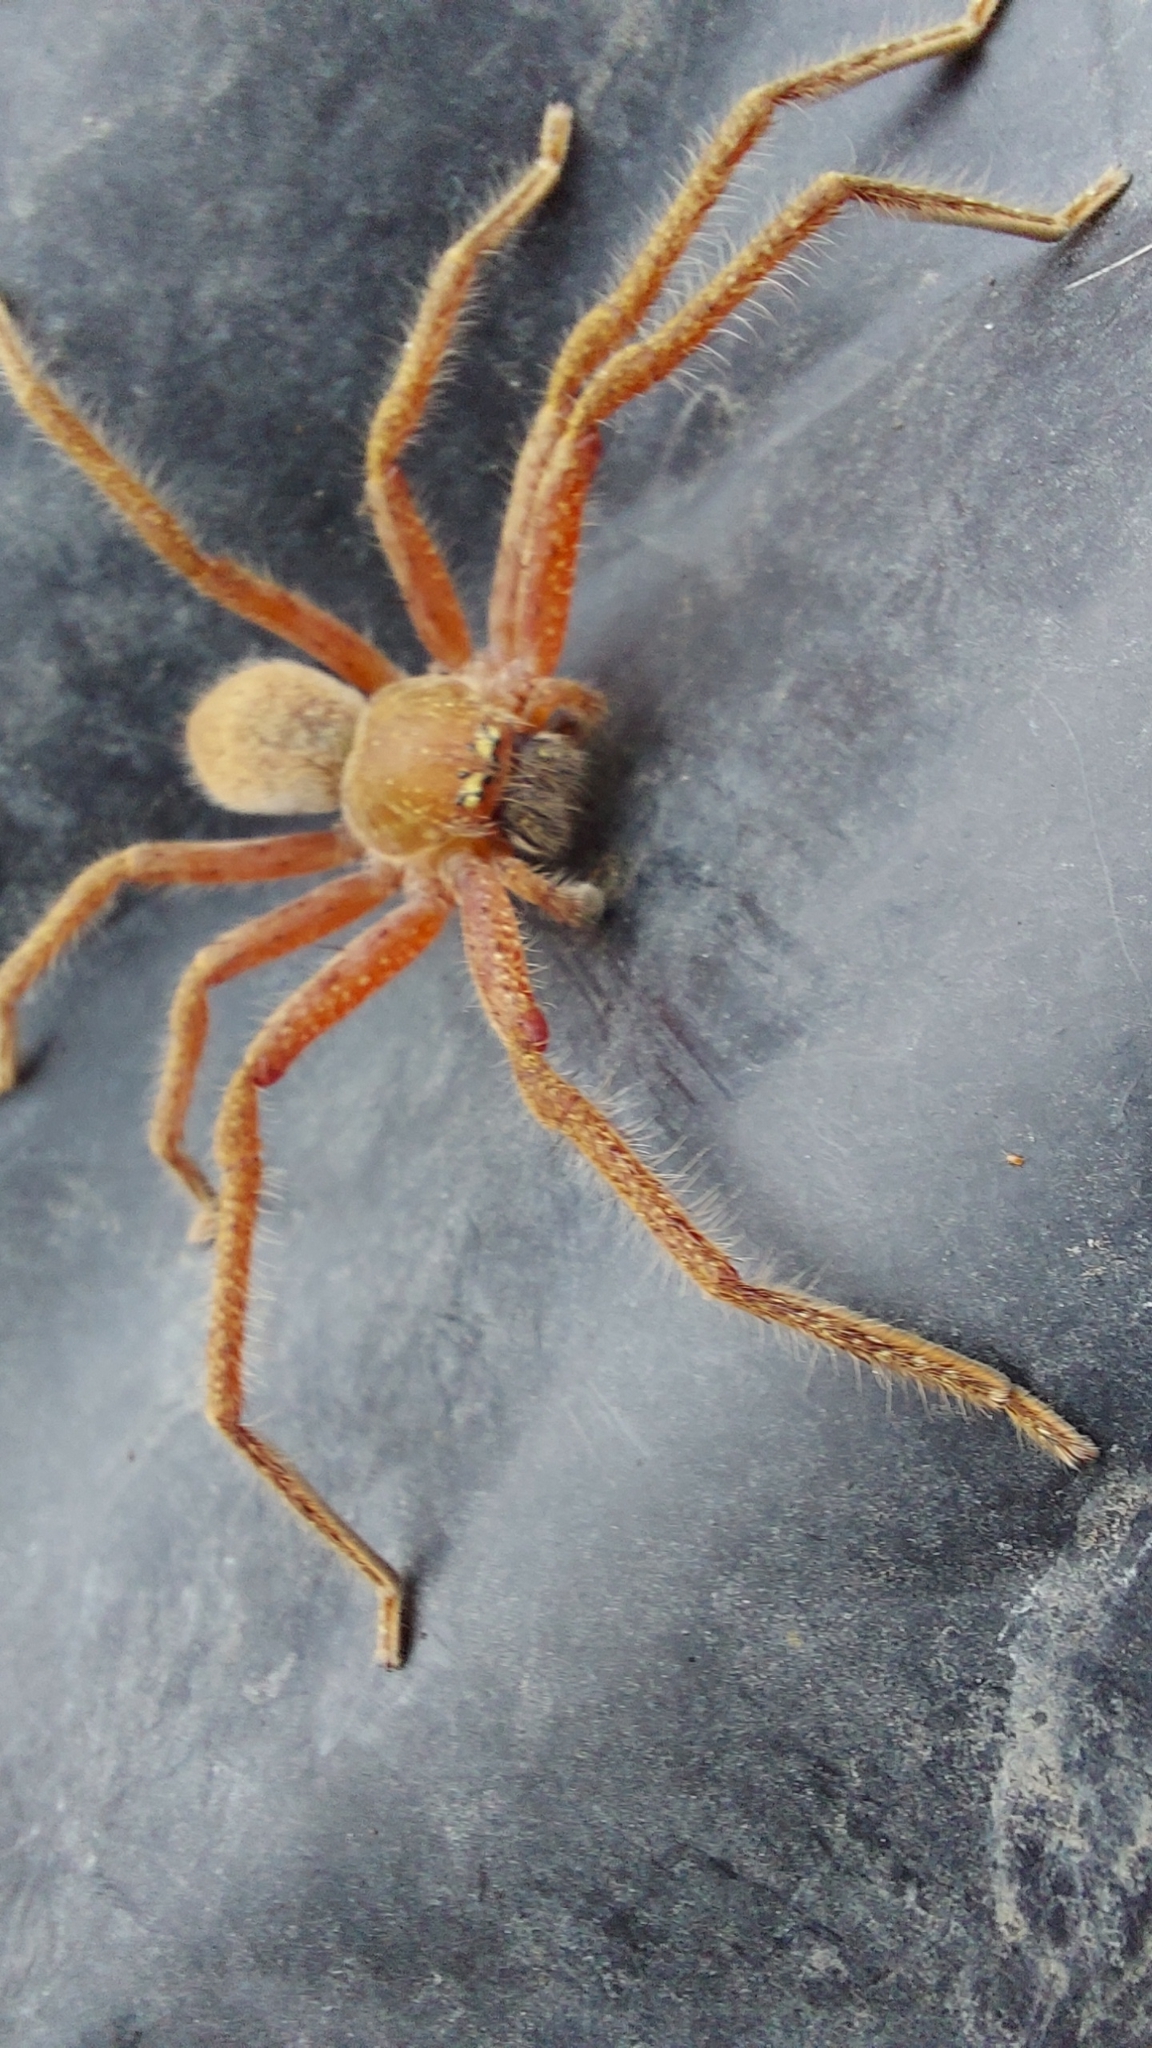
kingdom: Animalia
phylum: Arthropoda
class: Arachnida
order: Araneae
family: Sparassidae
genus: Neosparassus
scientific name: Neosparassus diana
